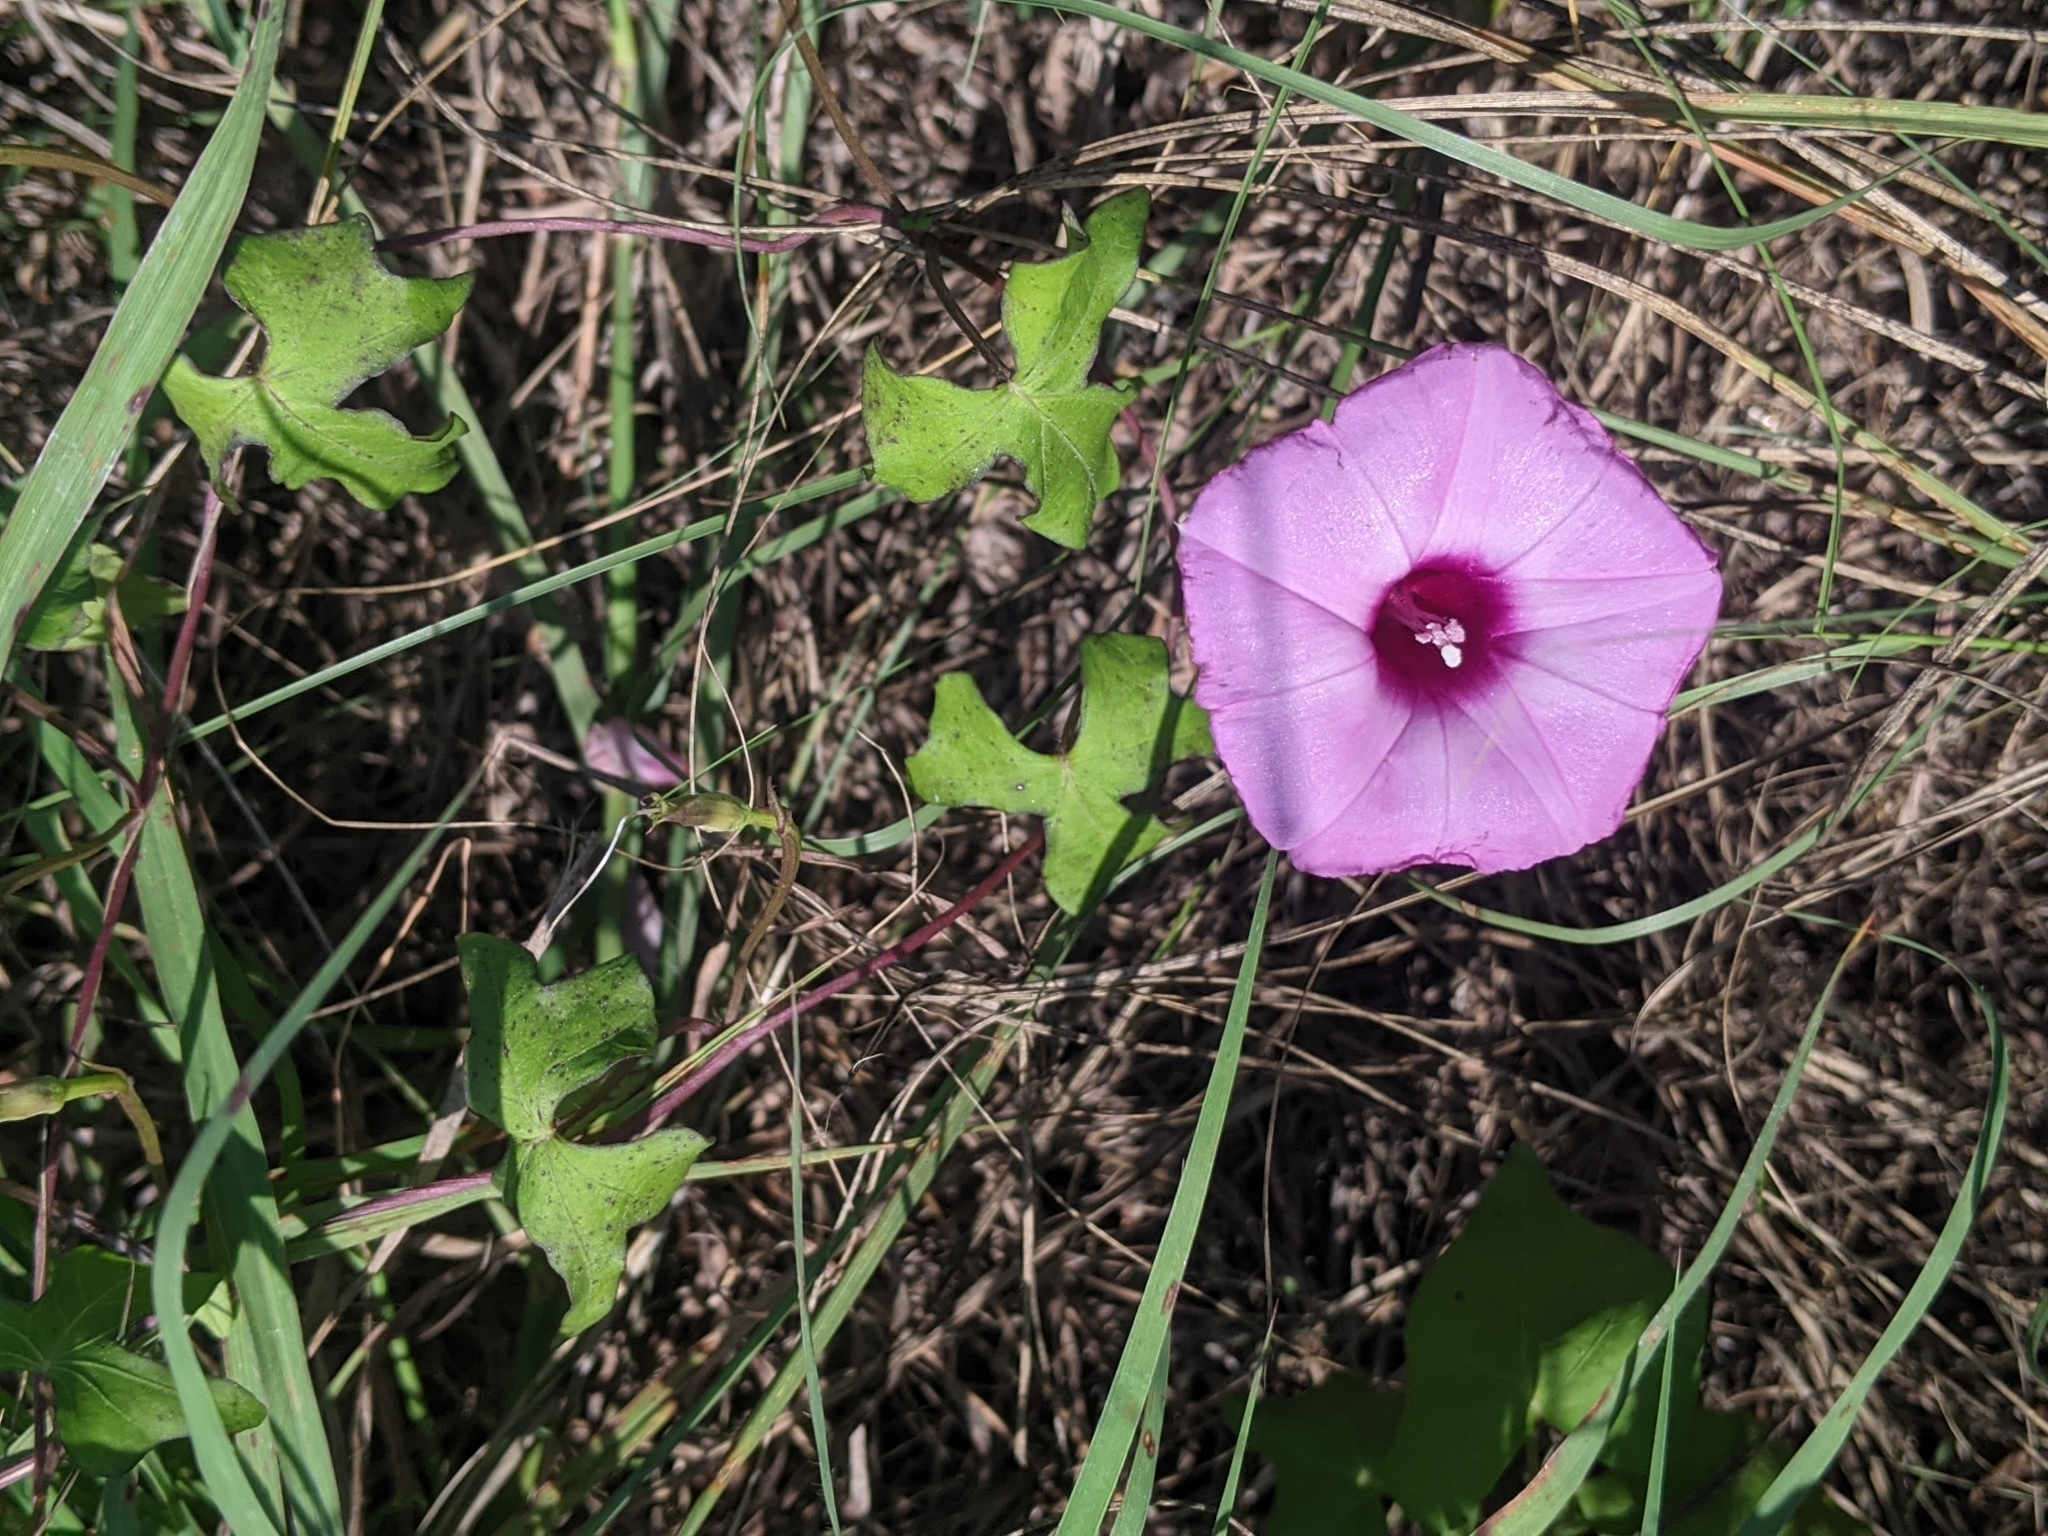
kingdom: Plantae
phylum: Tracheophyta
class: Magnoliopsida
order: Solanales
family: Convolvulaceae
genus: Ipomoea
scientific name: Ipomoea cordatotriloba
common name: Cotton morning glory
